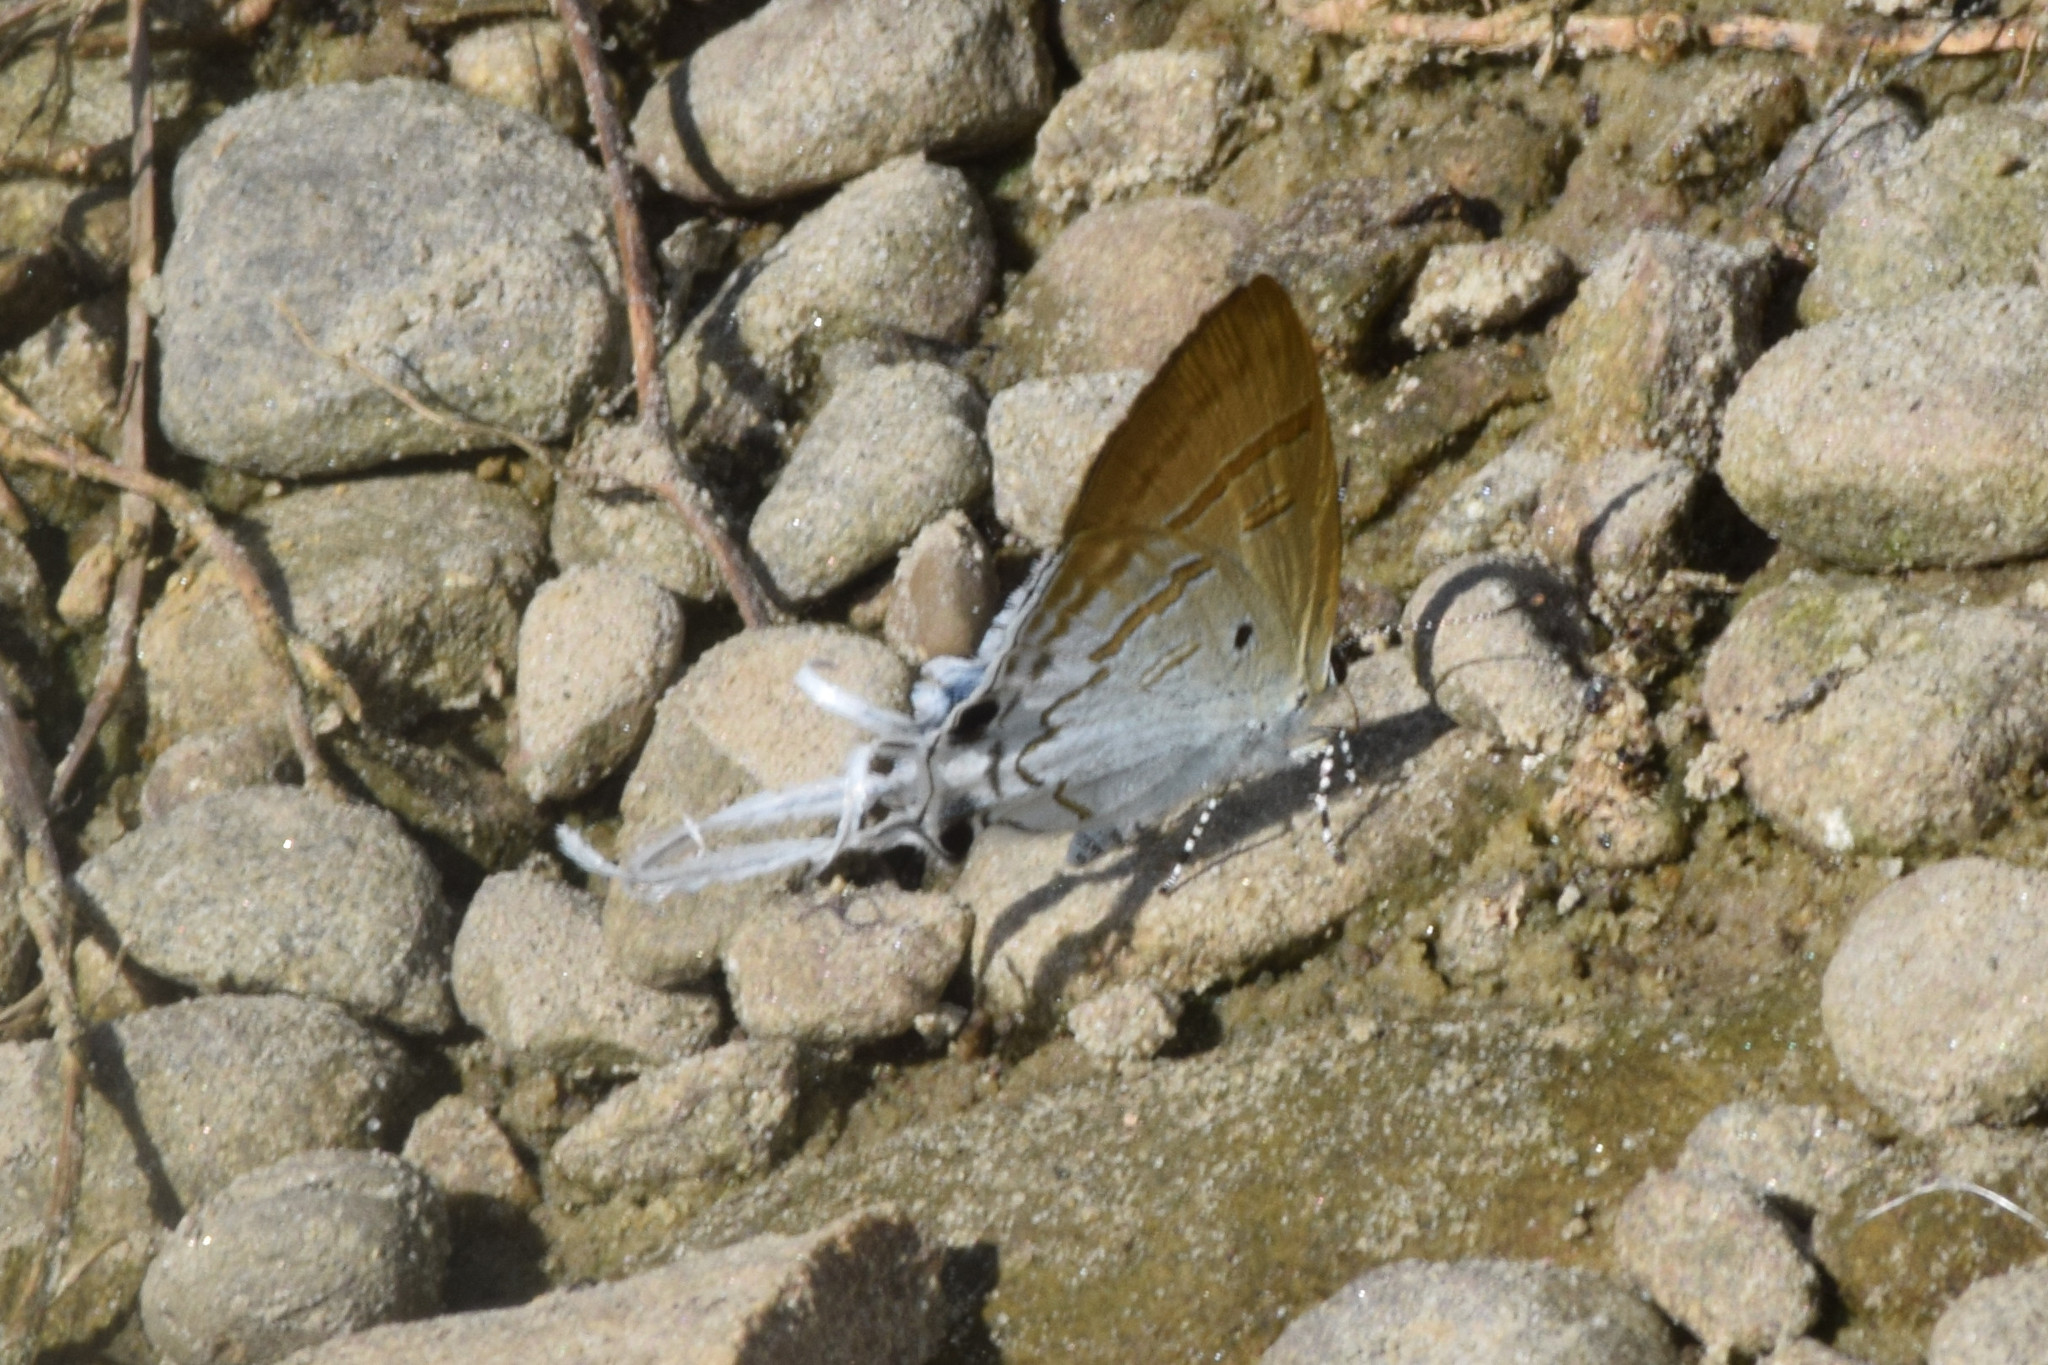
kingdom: Animalia
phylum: Arthropoda
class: Insecta
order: Lepidoptera
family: Lycaenidae
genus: Zeltus
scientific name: Zeltus amasa
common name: Fluffy tit
